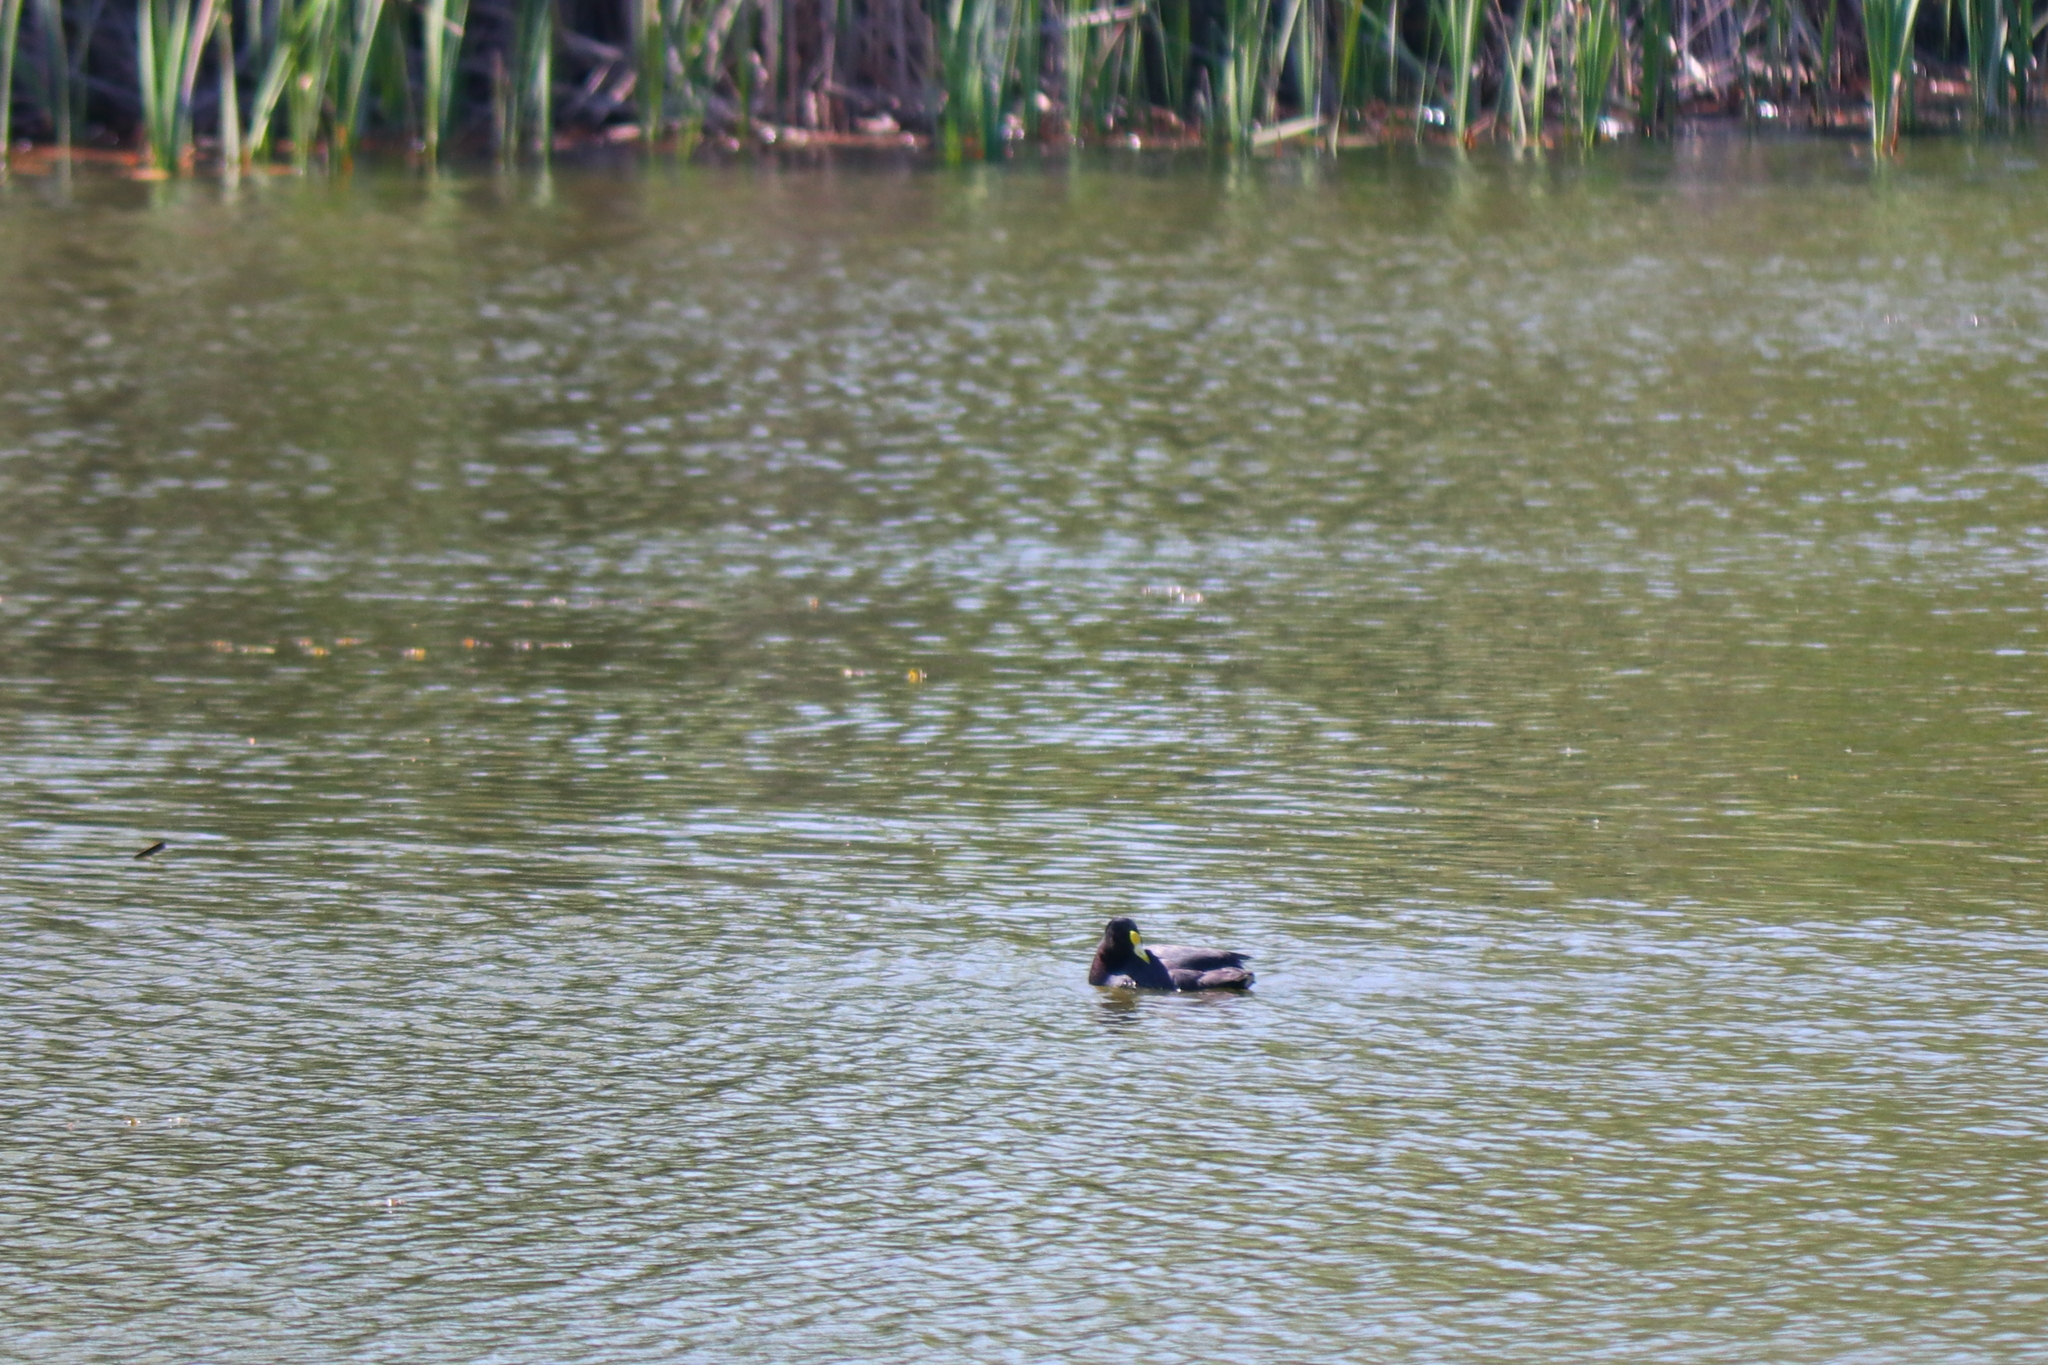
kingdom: Animalia
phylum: Chordata
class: Aves
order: Gruiformes
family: Rallidae
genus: Fulica
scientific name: Fulica leucoptera
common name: White-winged coot
